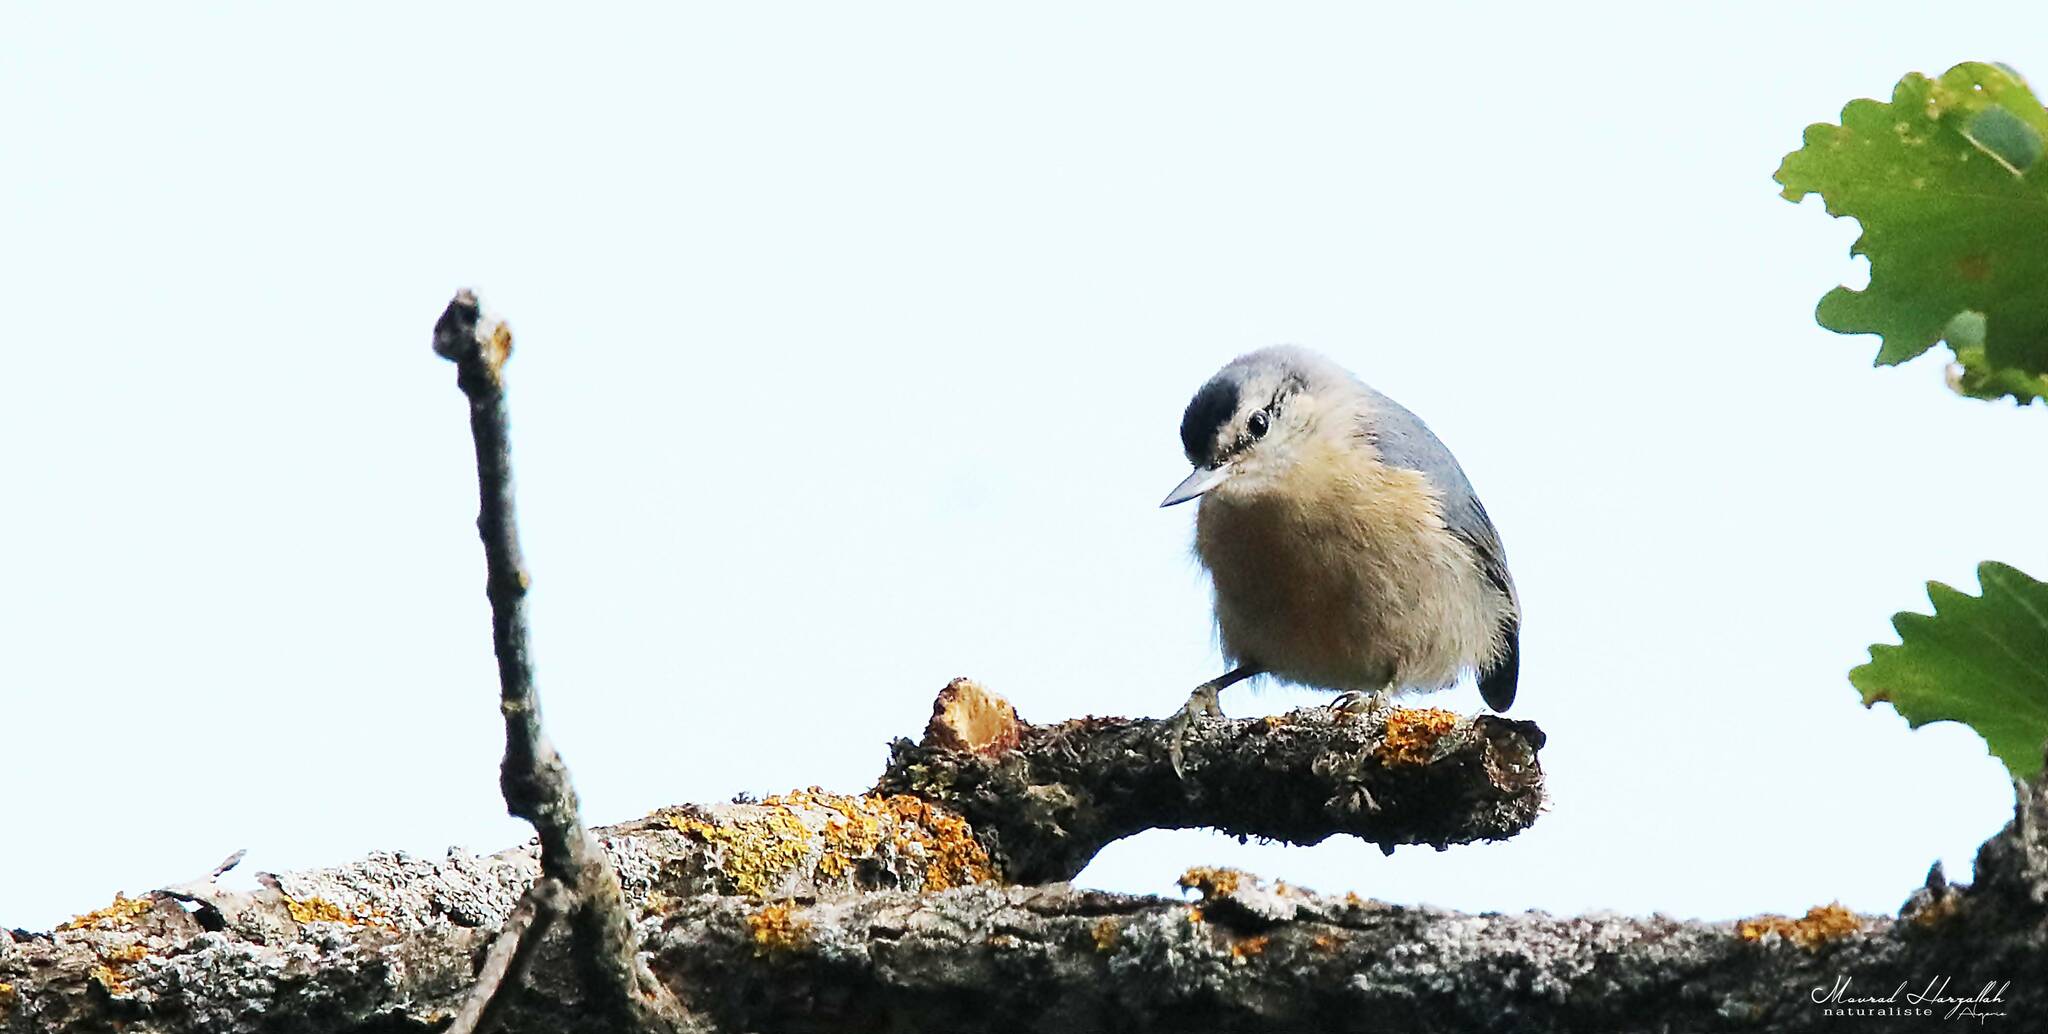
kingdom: Animalia
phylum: Chordata
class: Aves
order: Passeriformes
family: Sittidae
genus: Sitta
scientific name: Sitta ledanti
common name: Algerian nuthatch
